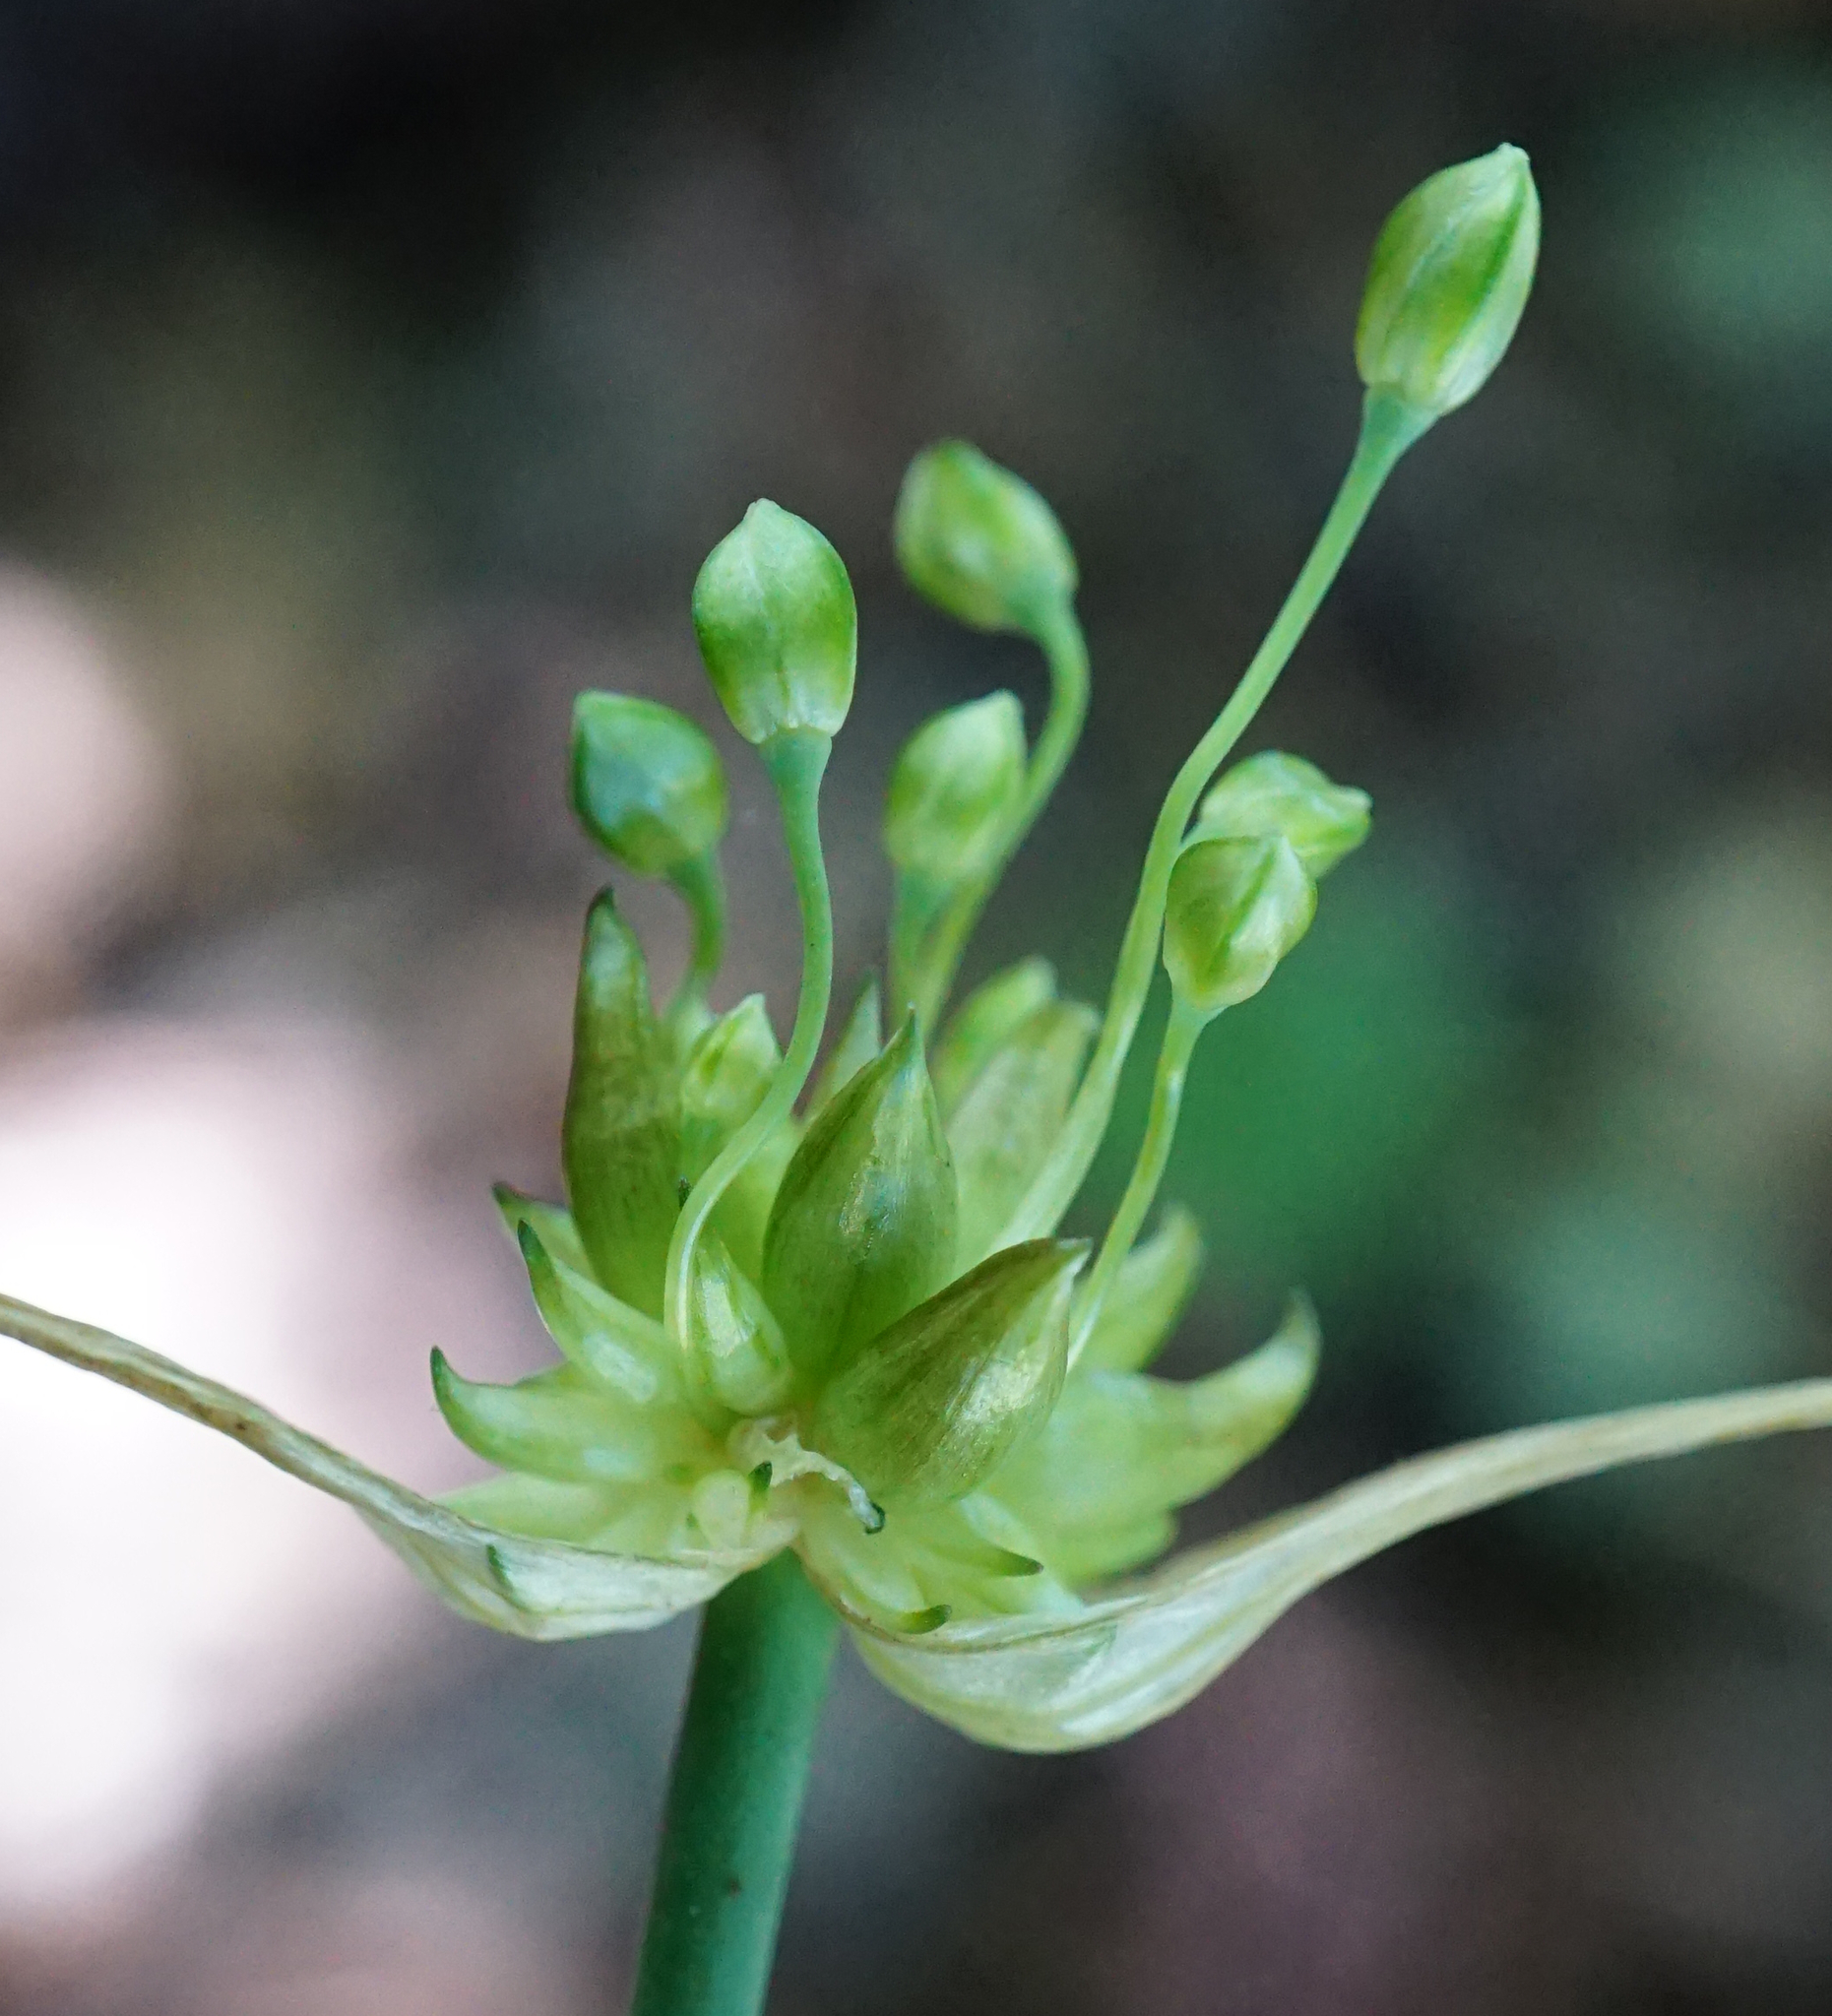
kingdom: Plantae
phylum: Tracheophyta
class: Liliopsida
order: Asparagales
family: Amaryllidaceae
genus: Allium
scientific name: Allium oleraceum
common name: Field garlic
